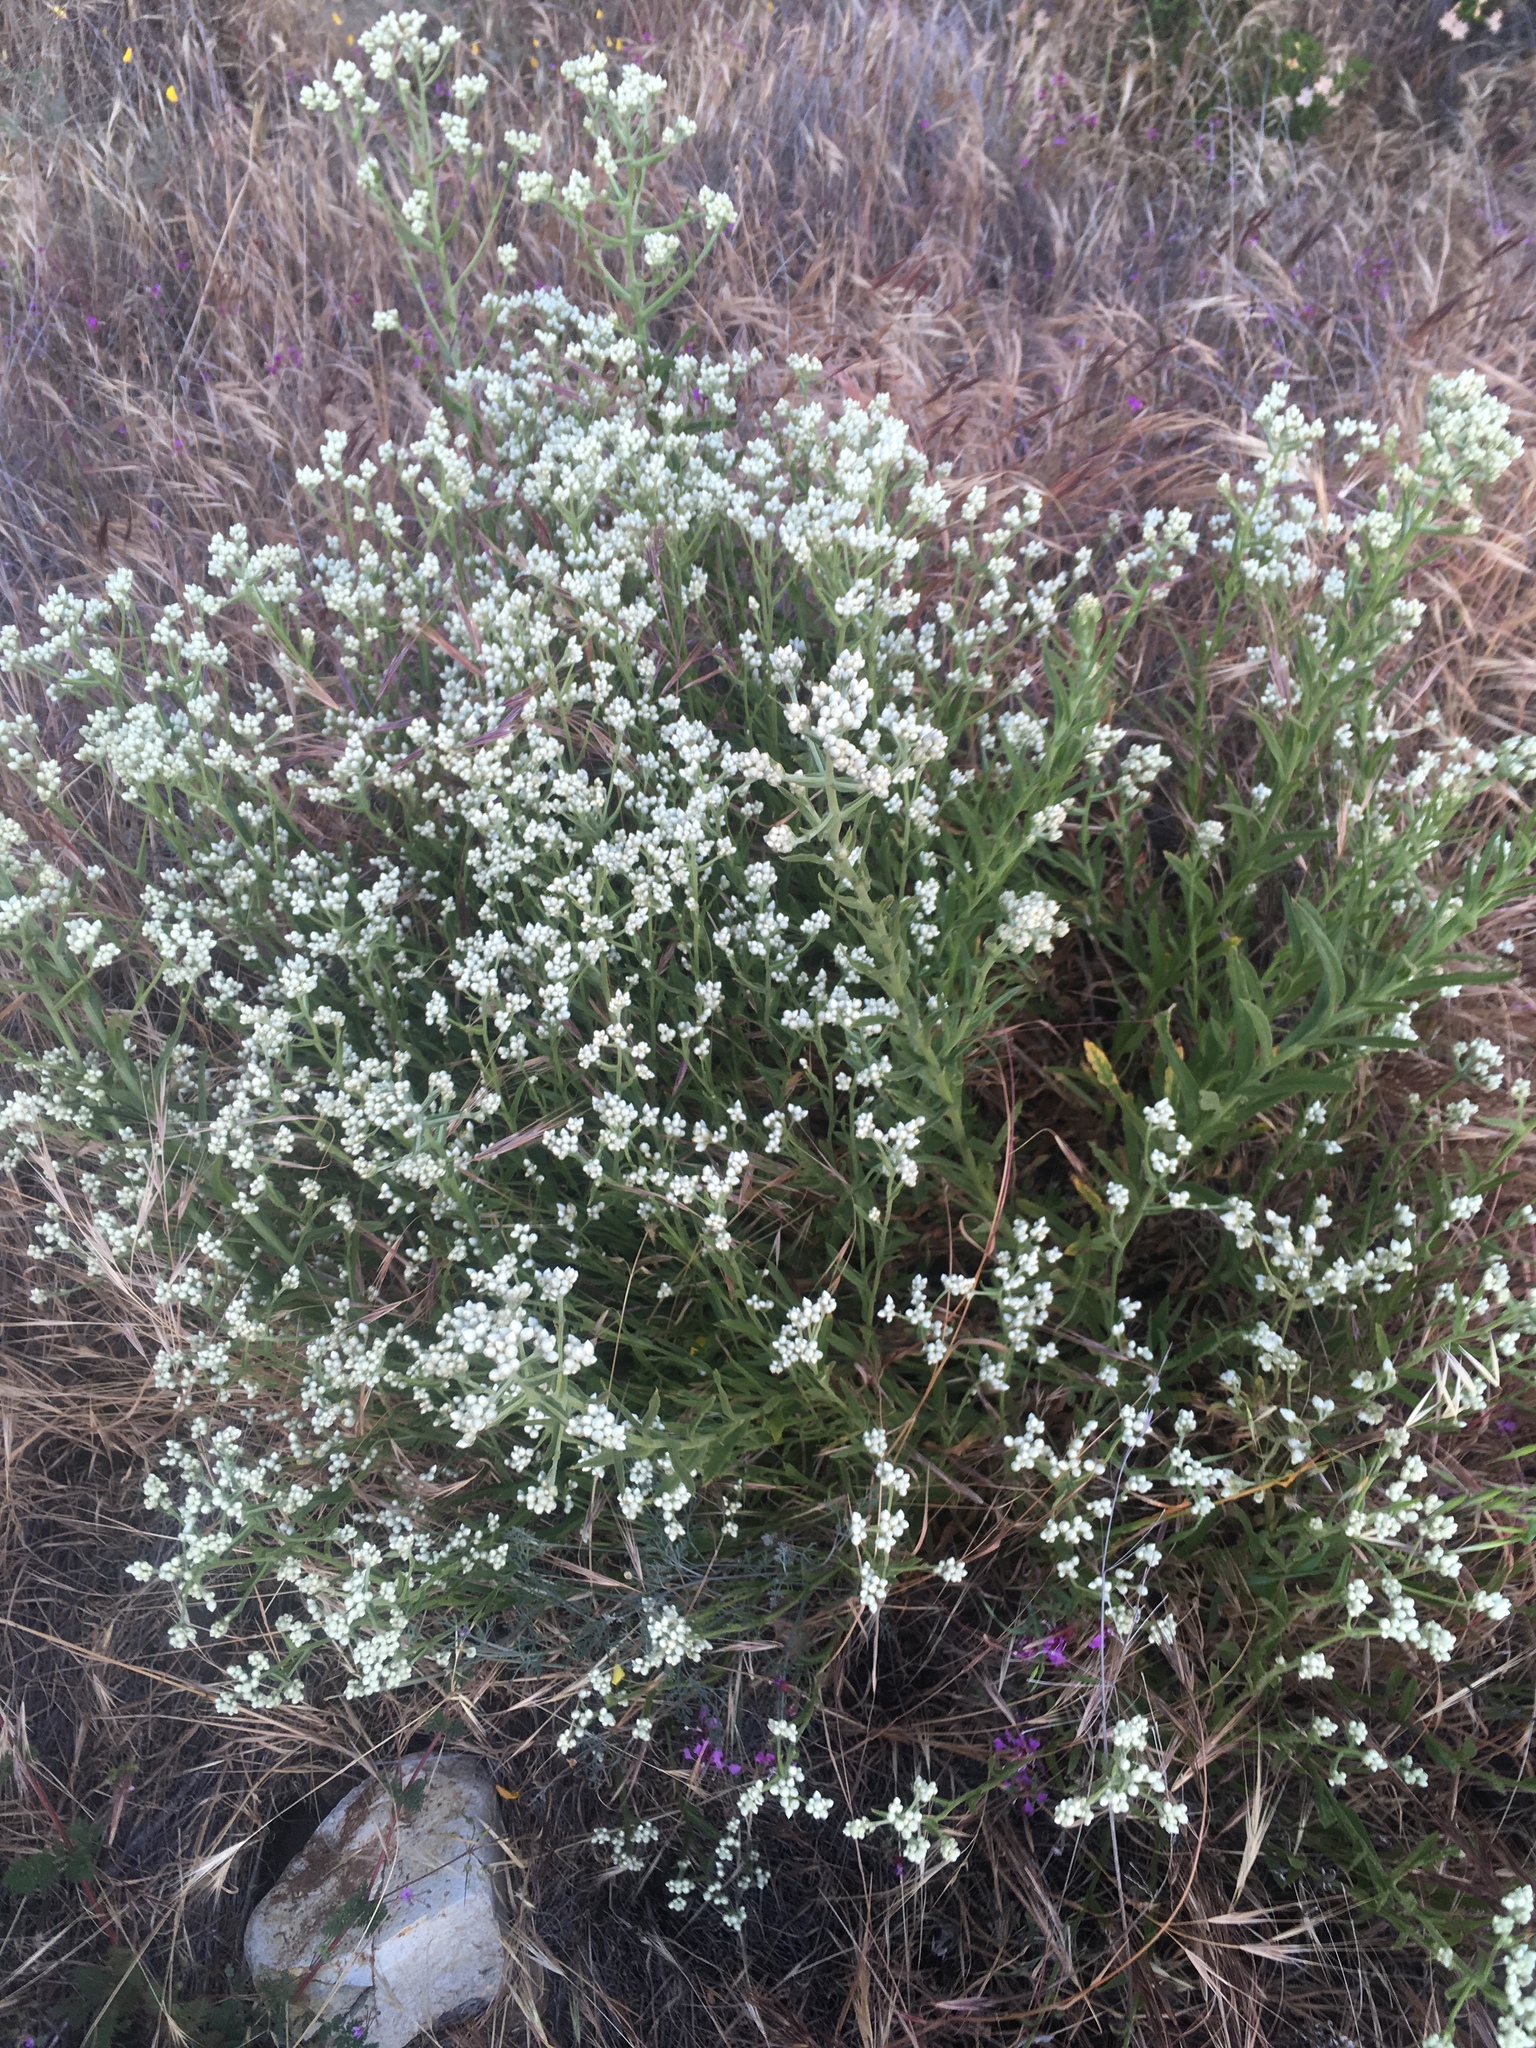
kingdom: Plantae
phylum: Tracheophyta
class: Magnoliopsida
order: Asterales
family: Asteraceae
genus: Pseudognaphalium
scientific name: Pseudognaphalium californicum
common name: California rabbit-tobacco
